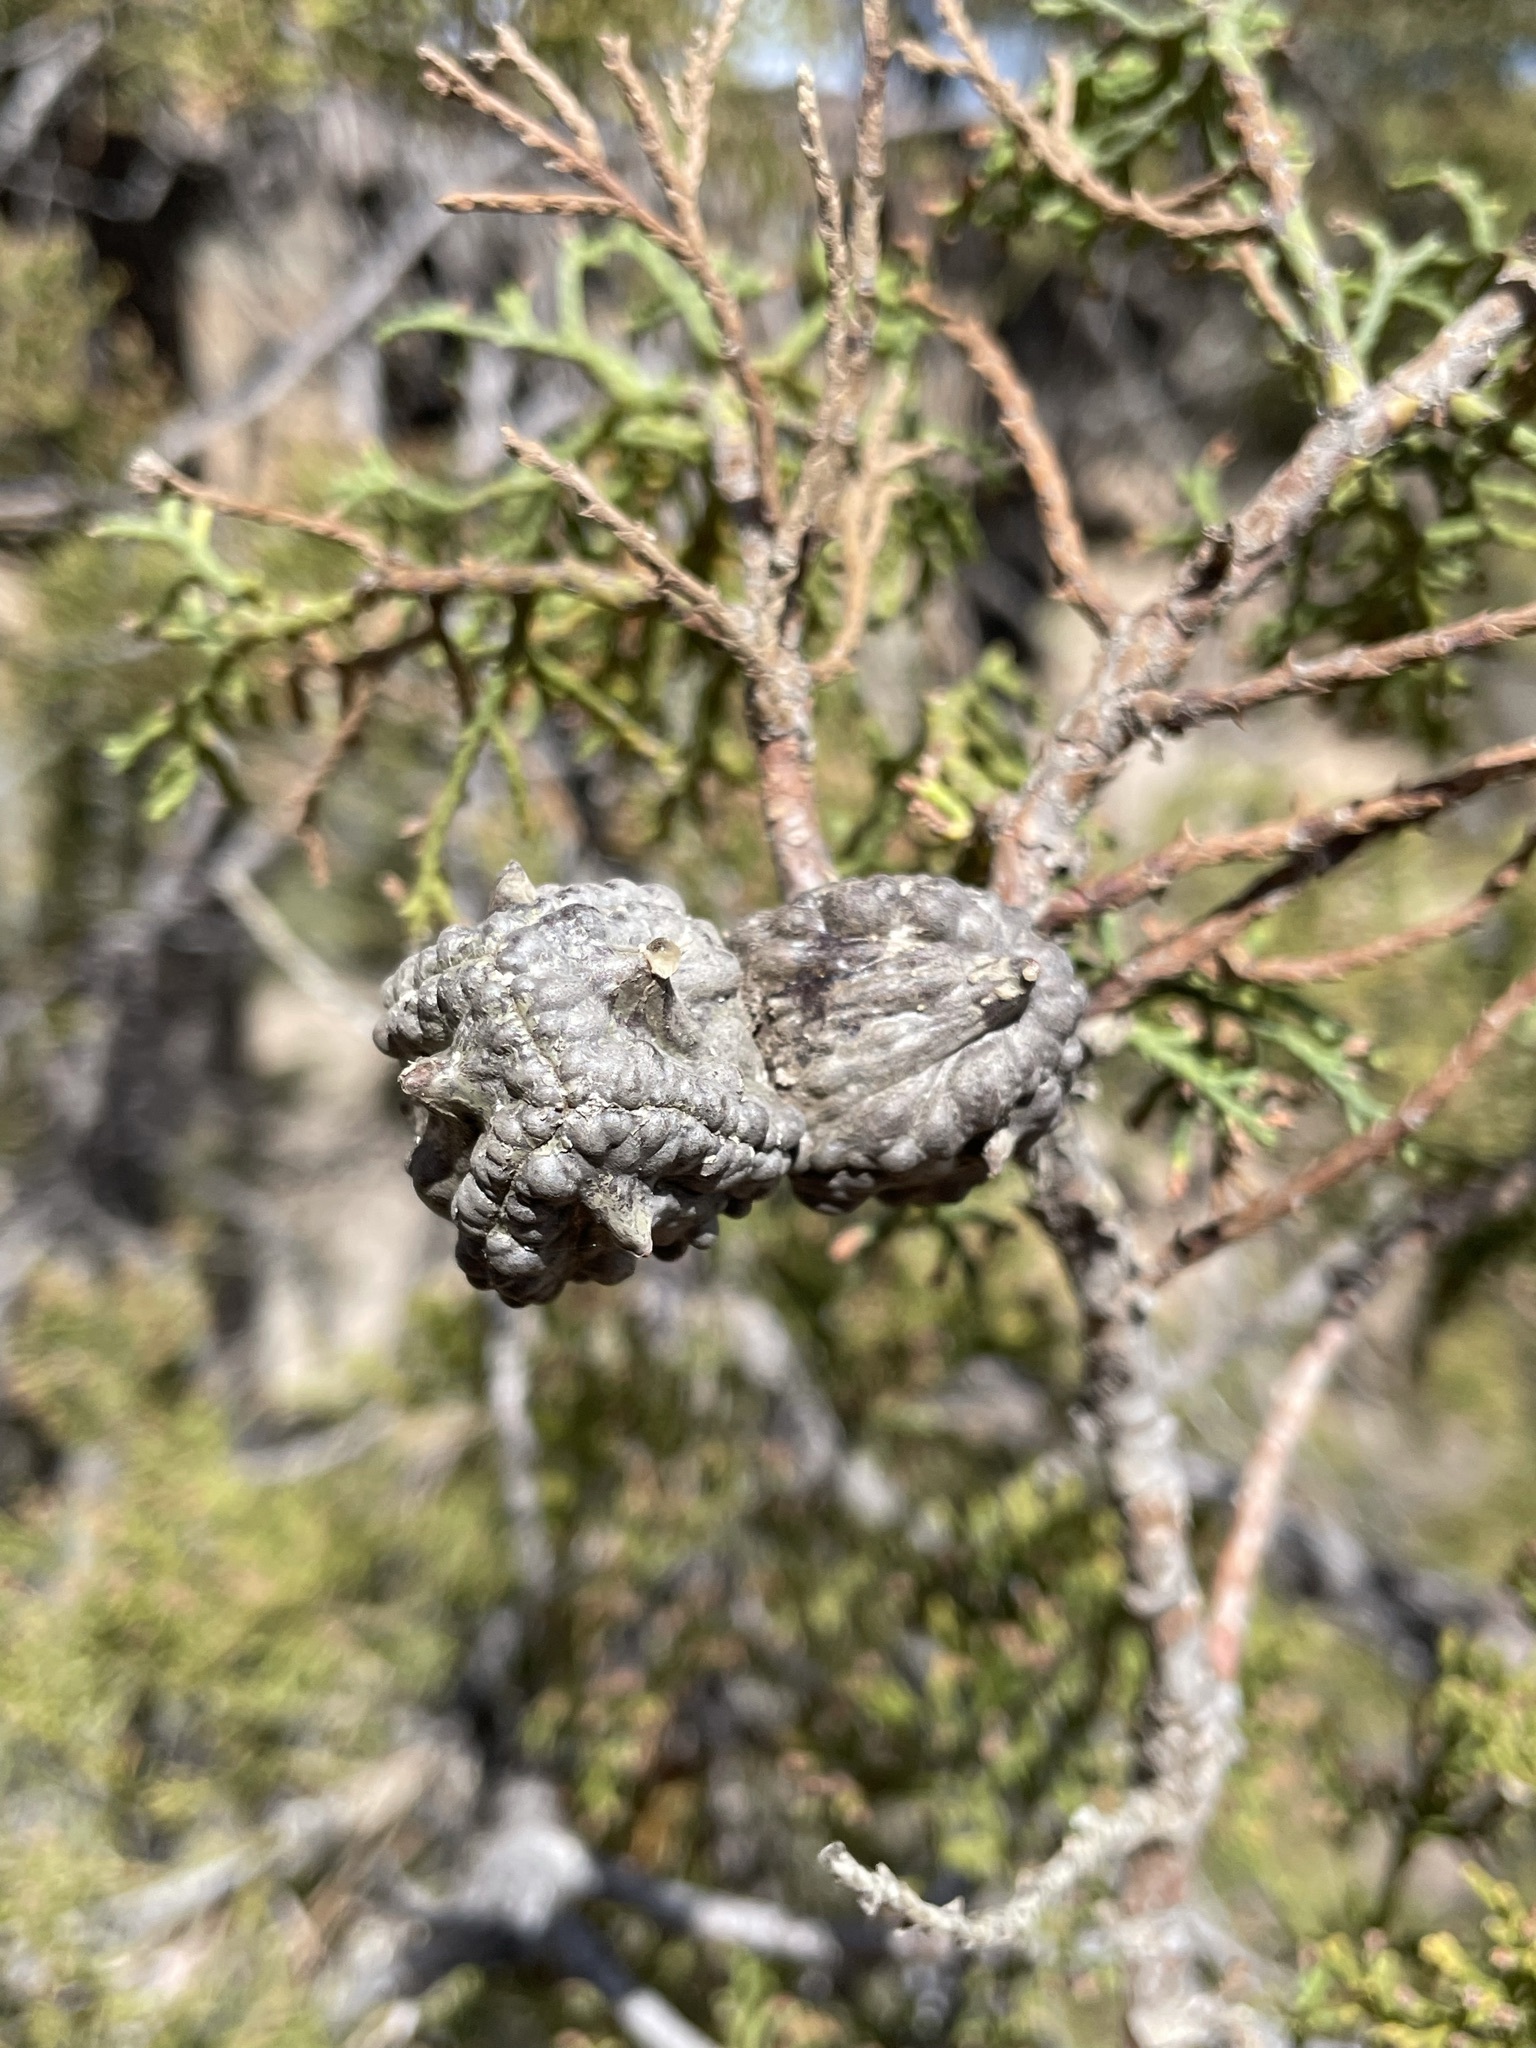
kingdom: Plantae
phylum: Tracheophyta
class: Pinopsida
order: Pinales
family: Cupressaceae
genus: Widdringtonia
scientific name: Widdringtonia schwarzii
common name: Baviaans cedar
